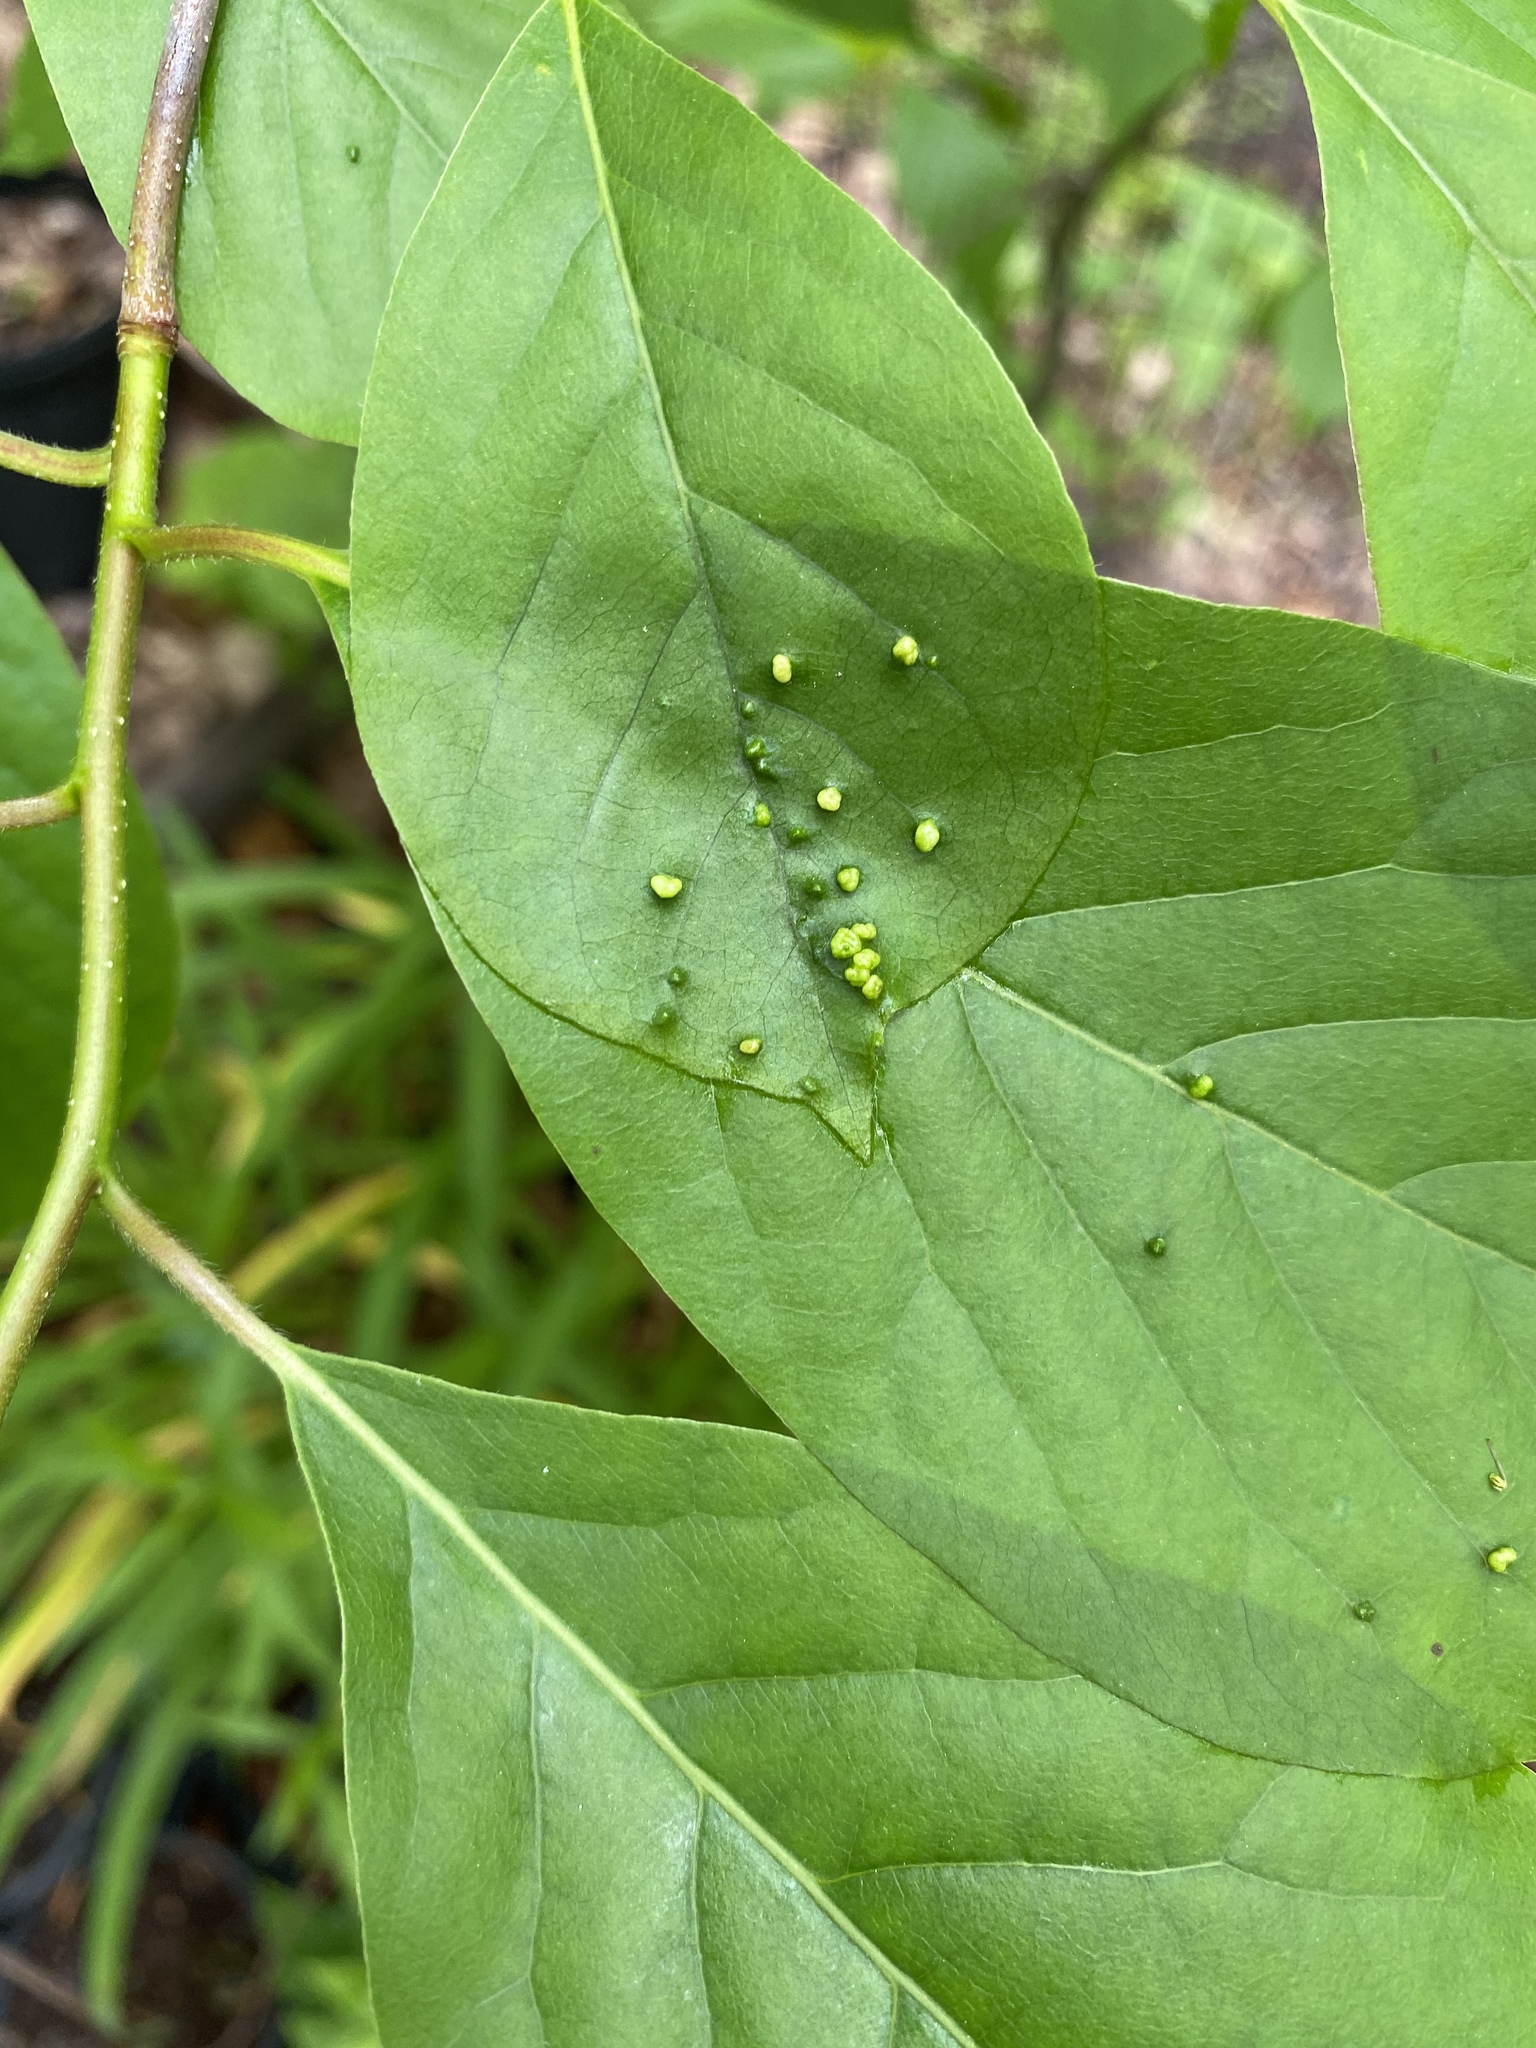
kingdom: Animalia
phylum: Arthropoda
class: Arachnida
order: Trombidiformes
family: Eriophyidae
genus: Aceria
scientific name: Aceria
